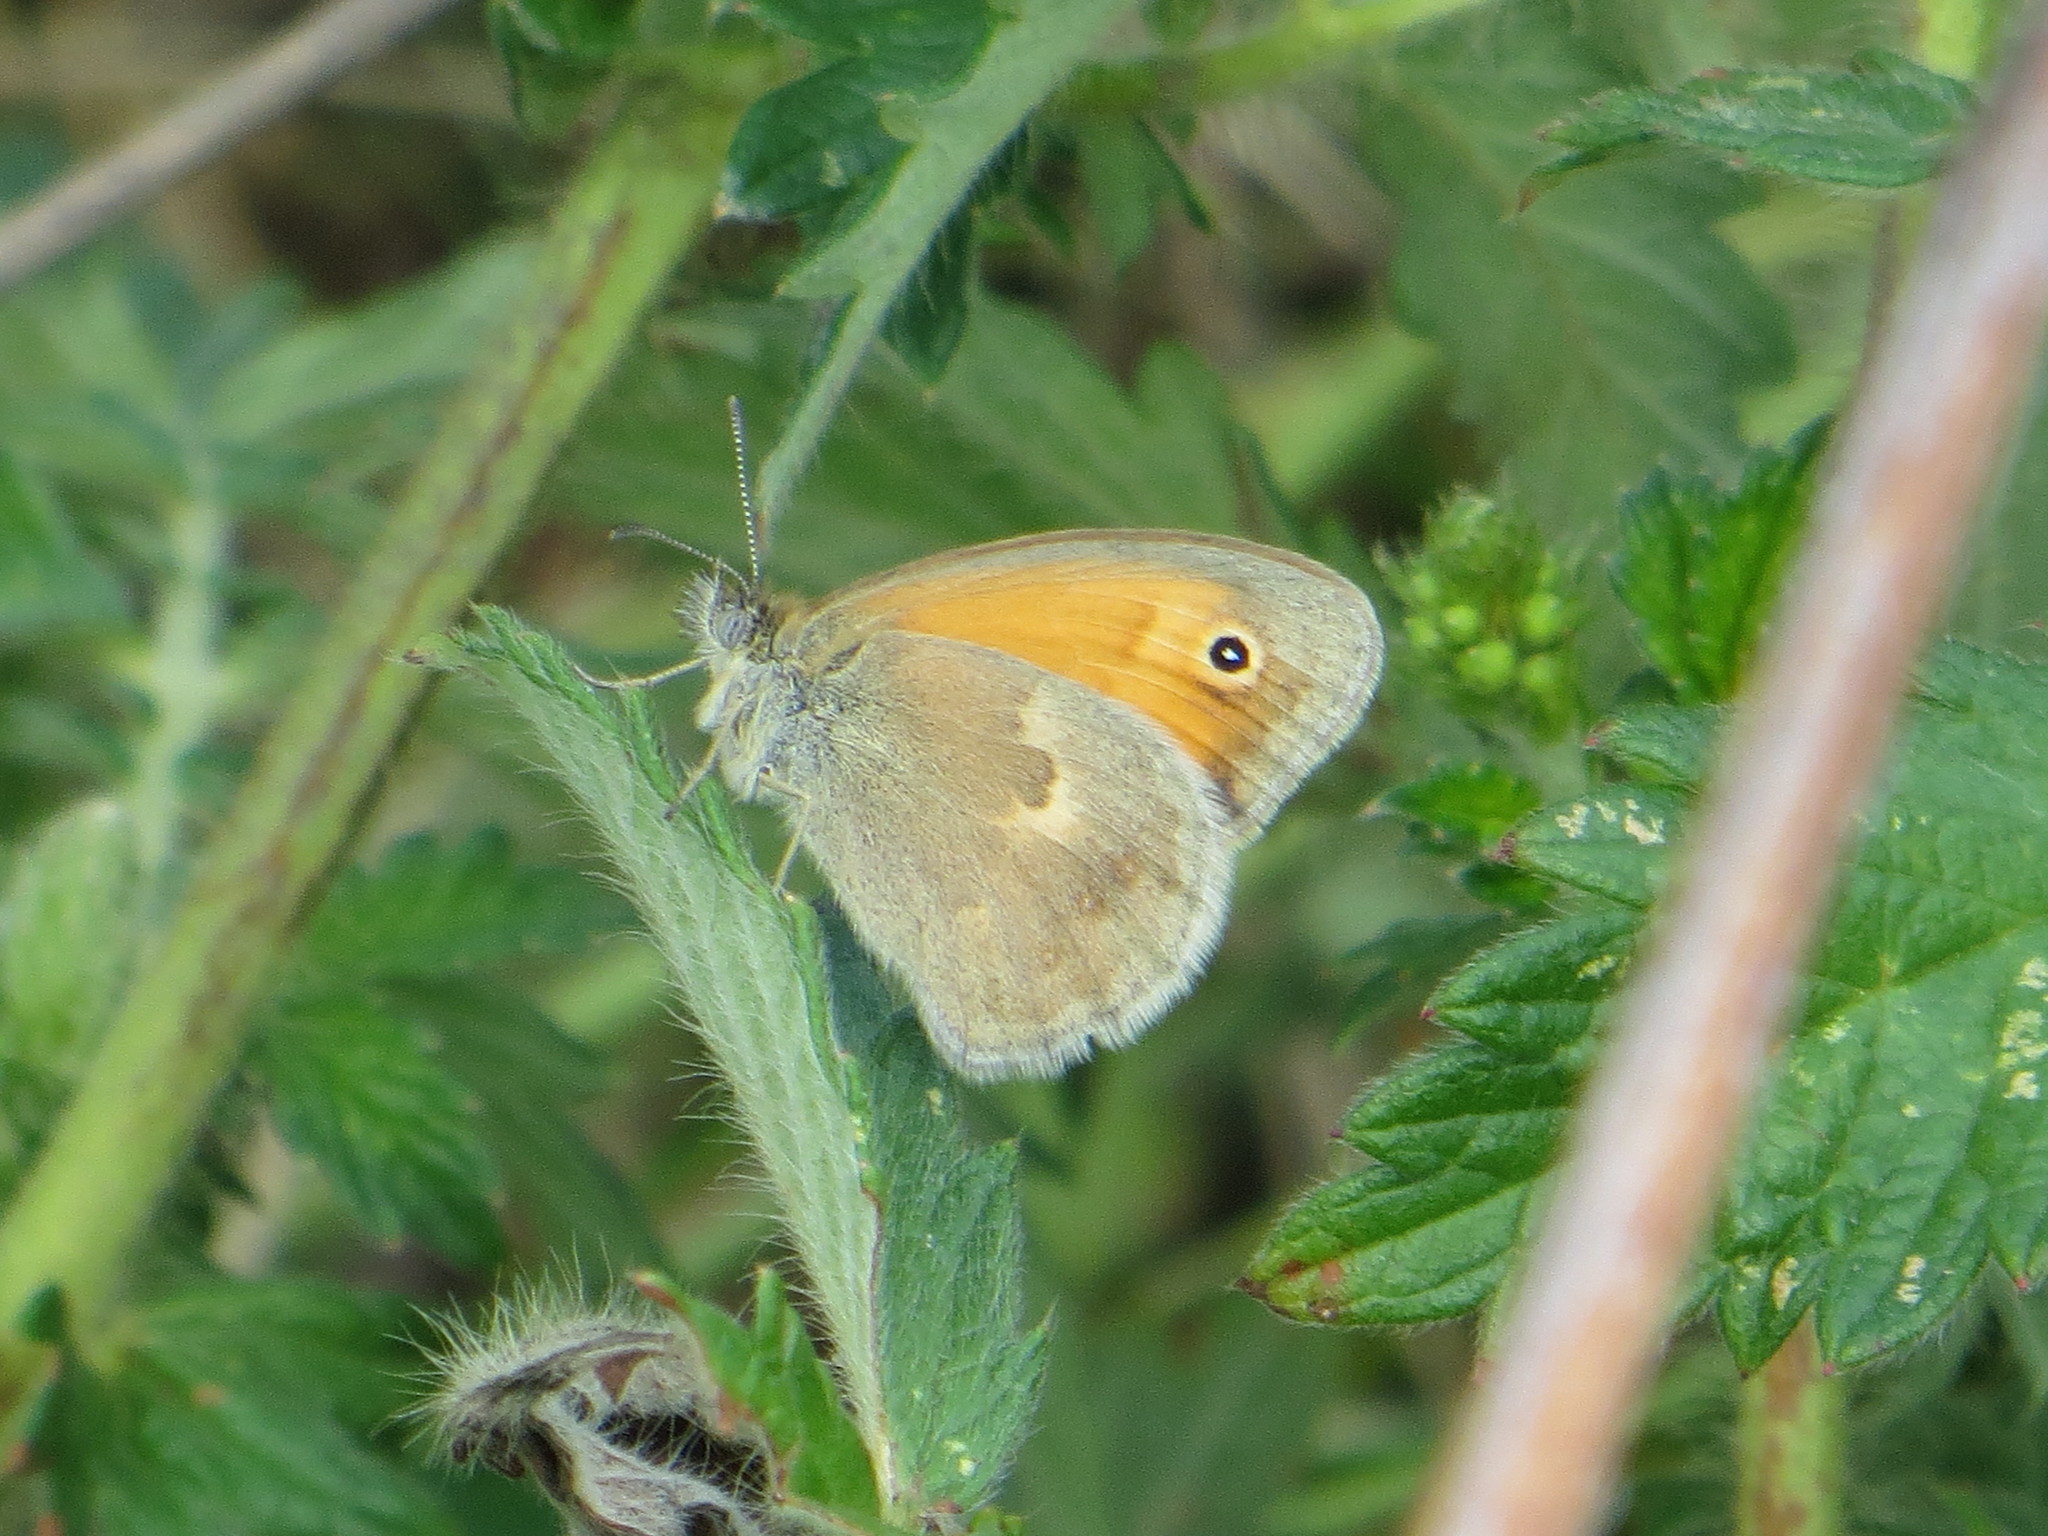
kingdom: Animalia
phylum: Arthropoda
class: Insecta
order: Lepidoptera
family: Nymphalidae
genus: Coenonympha
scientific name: Coenonympha pamphilus
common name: Small heath
